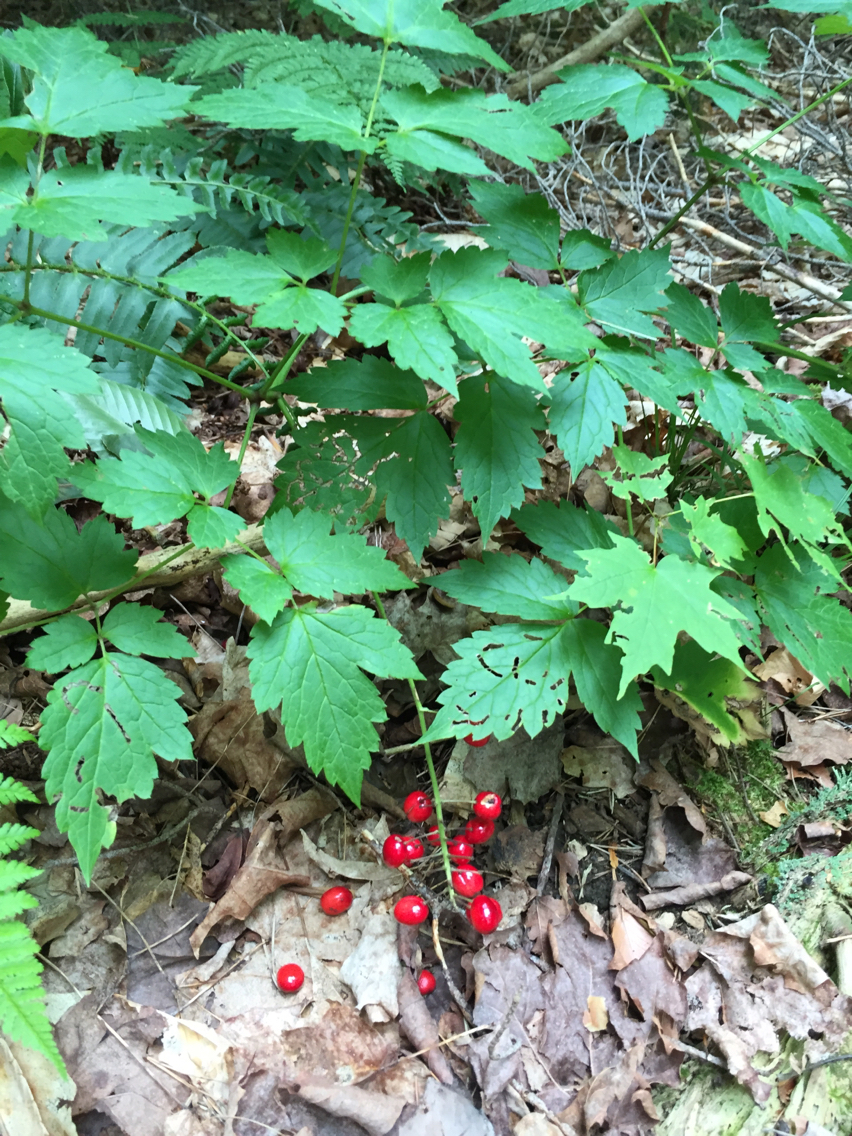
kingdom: Plantae
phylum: Tracheophyta
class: Magnoliopsida
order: Ranunculales
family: Ranunculaceae
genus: Actaea
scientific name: Actaea rubra
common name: Red baneberry
